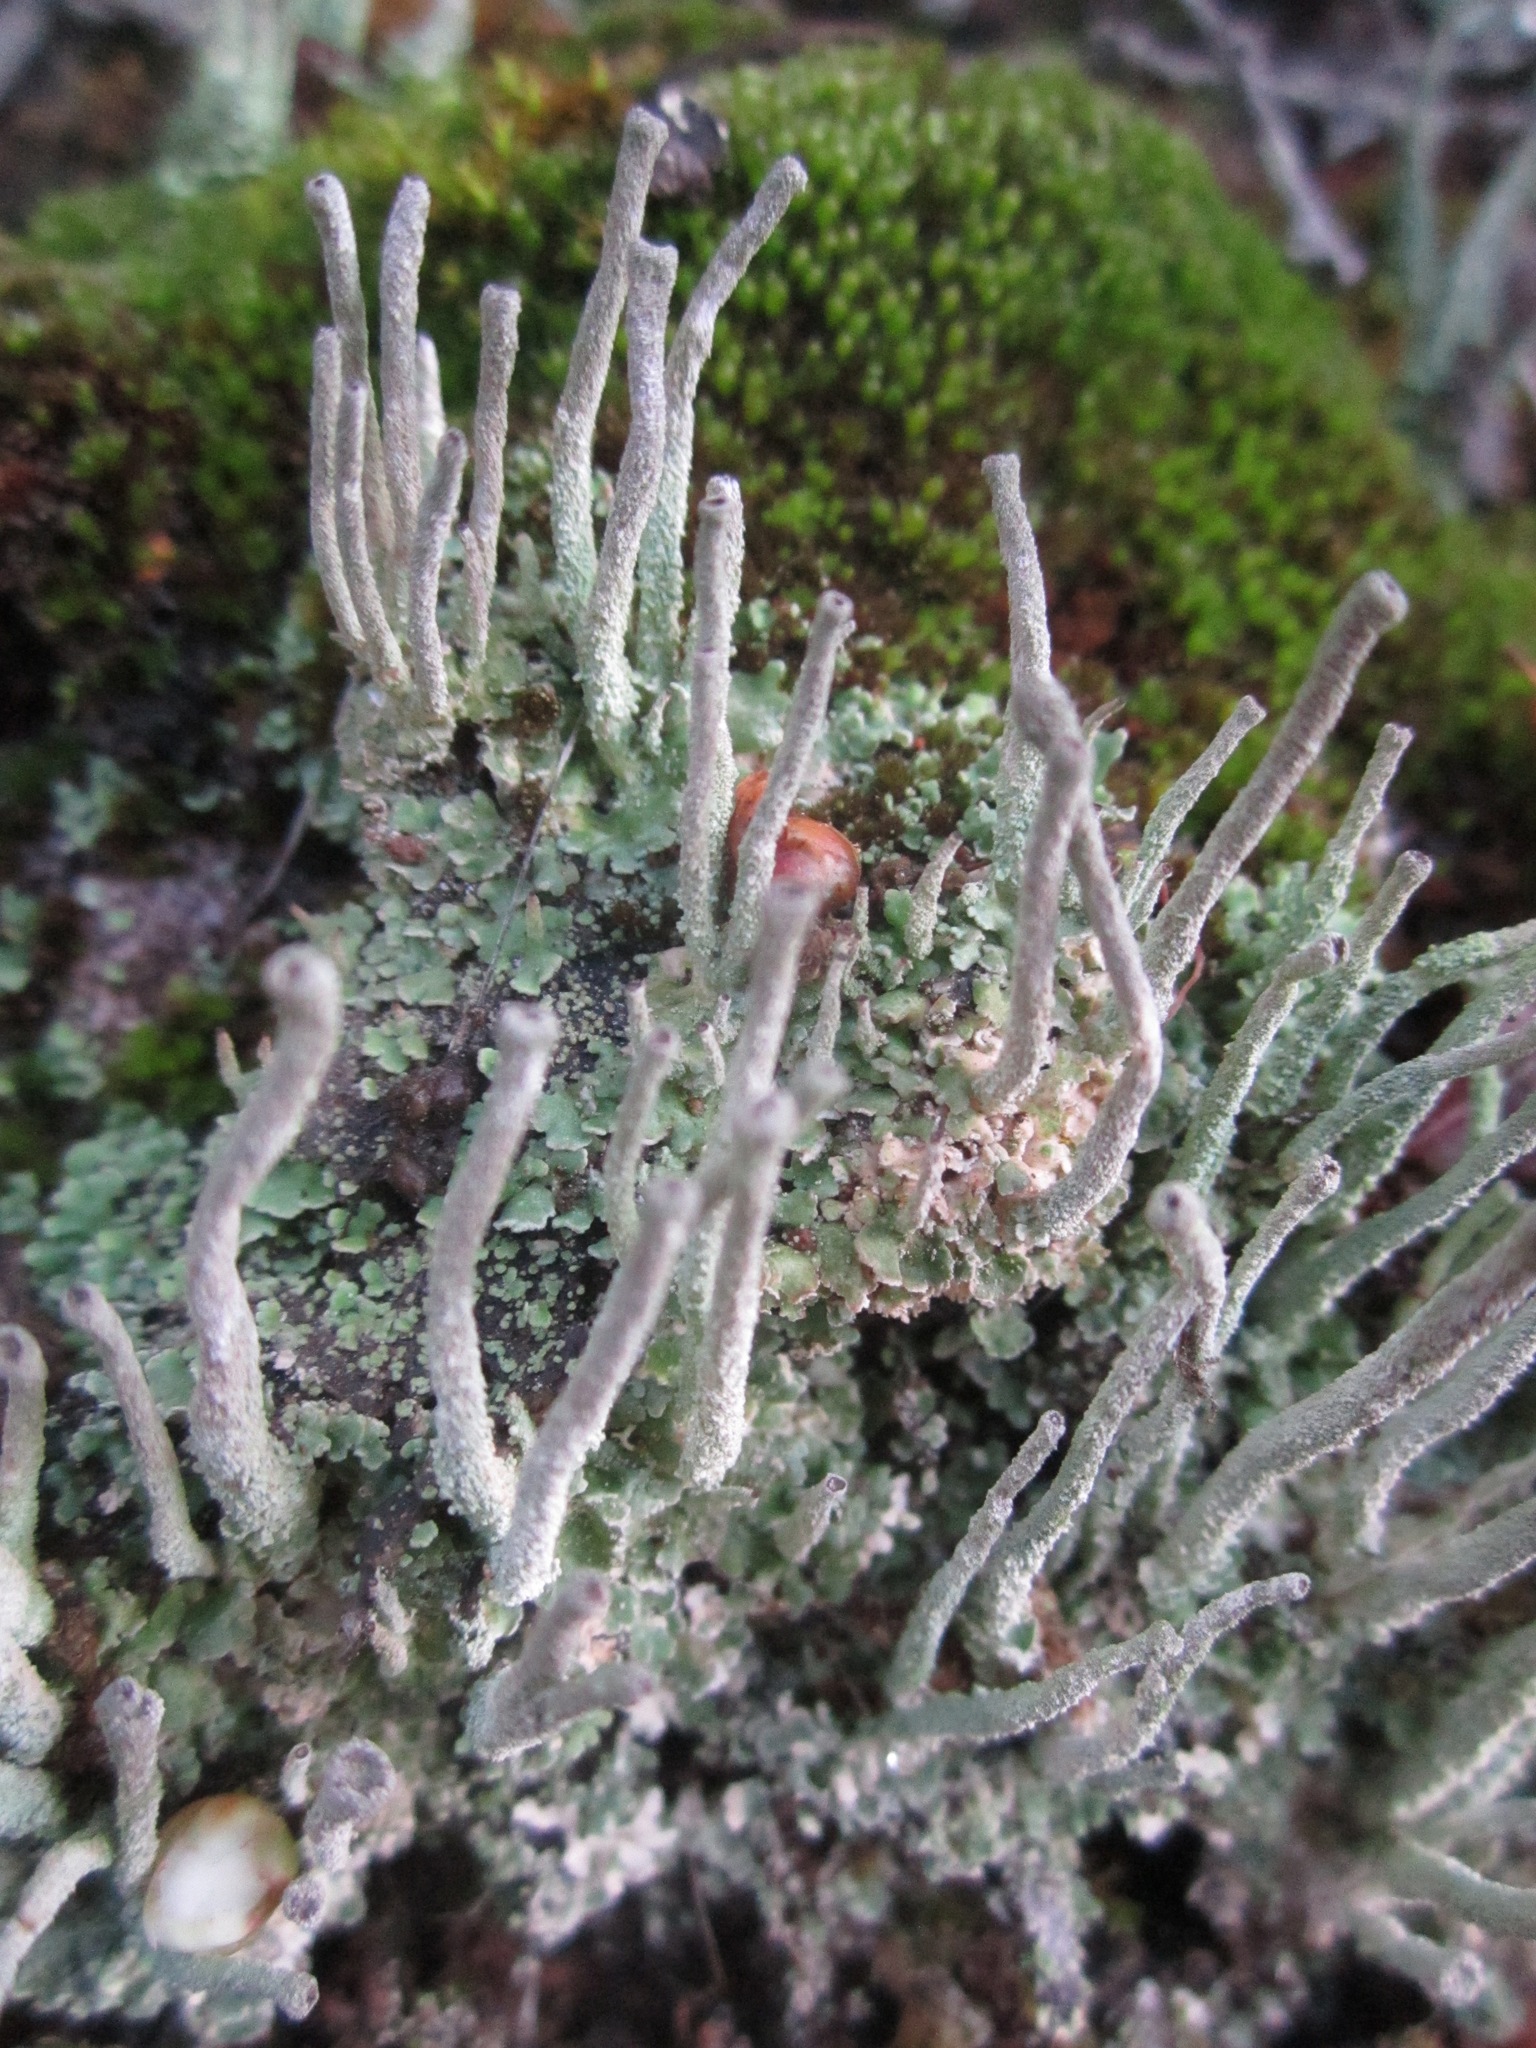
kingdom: Fungi
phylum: Ascomycota
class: Lecanoromycetes
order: Lecanorales
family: Cladoniaceae
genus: Cladonia
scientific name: Cladonia coniocraea
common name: Common powderhorn
